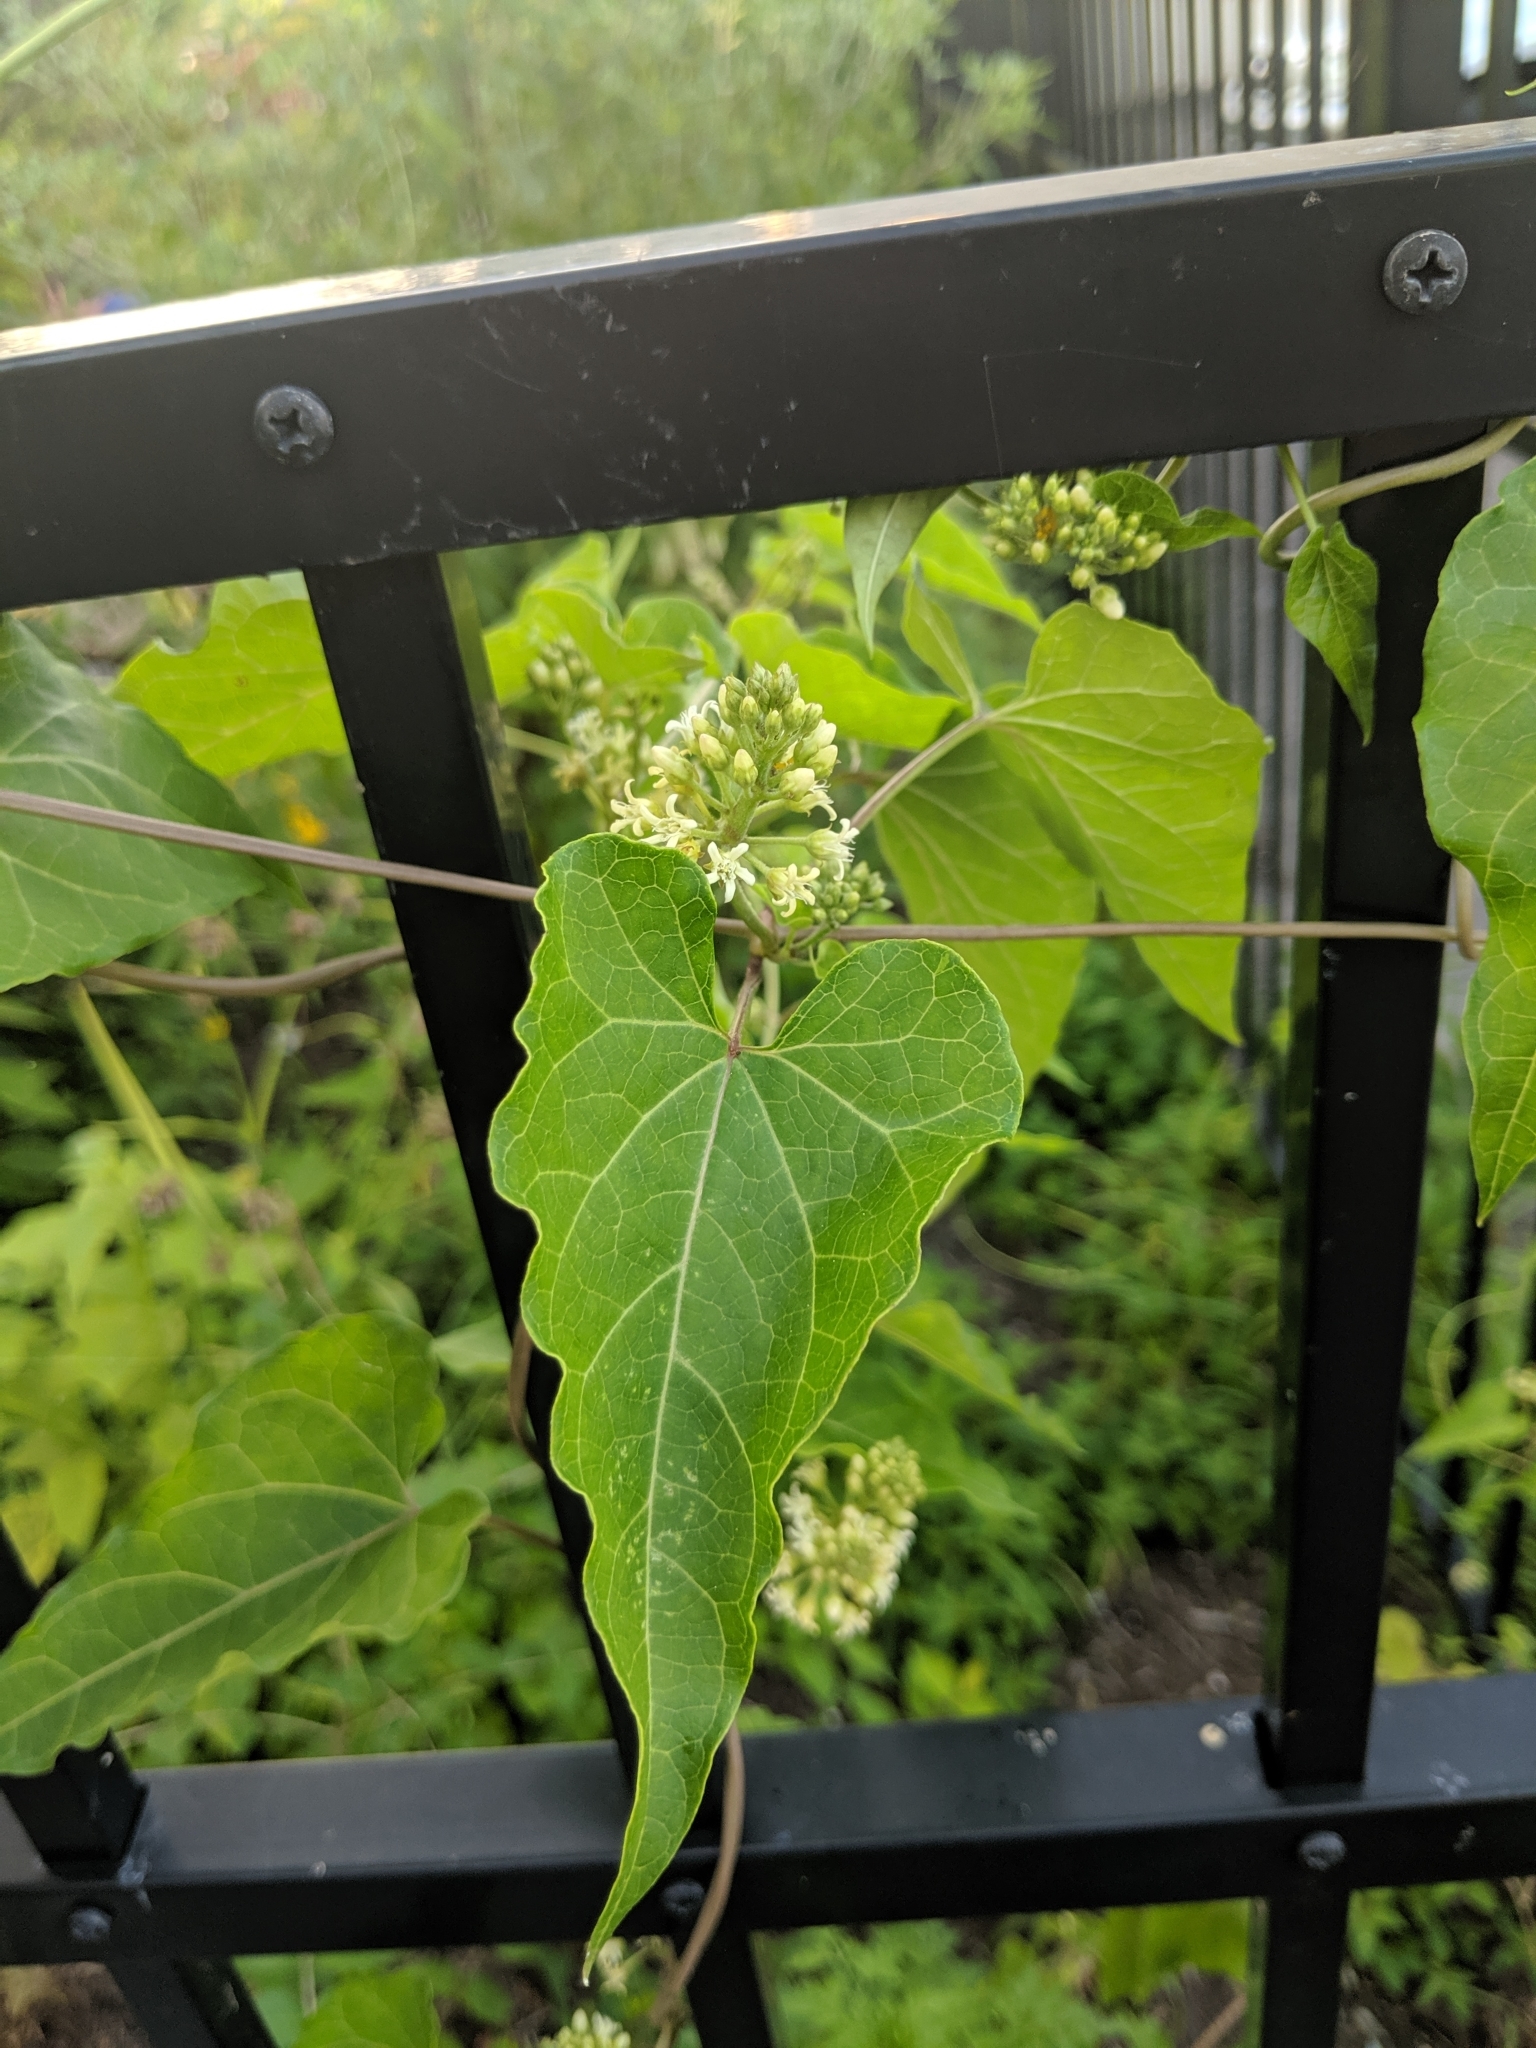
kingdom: Plantae
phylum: Tracheophyta
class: Magnoliopsida
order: Gentianales
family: Apocynaceae
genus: Cynanchum
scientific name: Cynanchum laeve
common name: Sandvine
